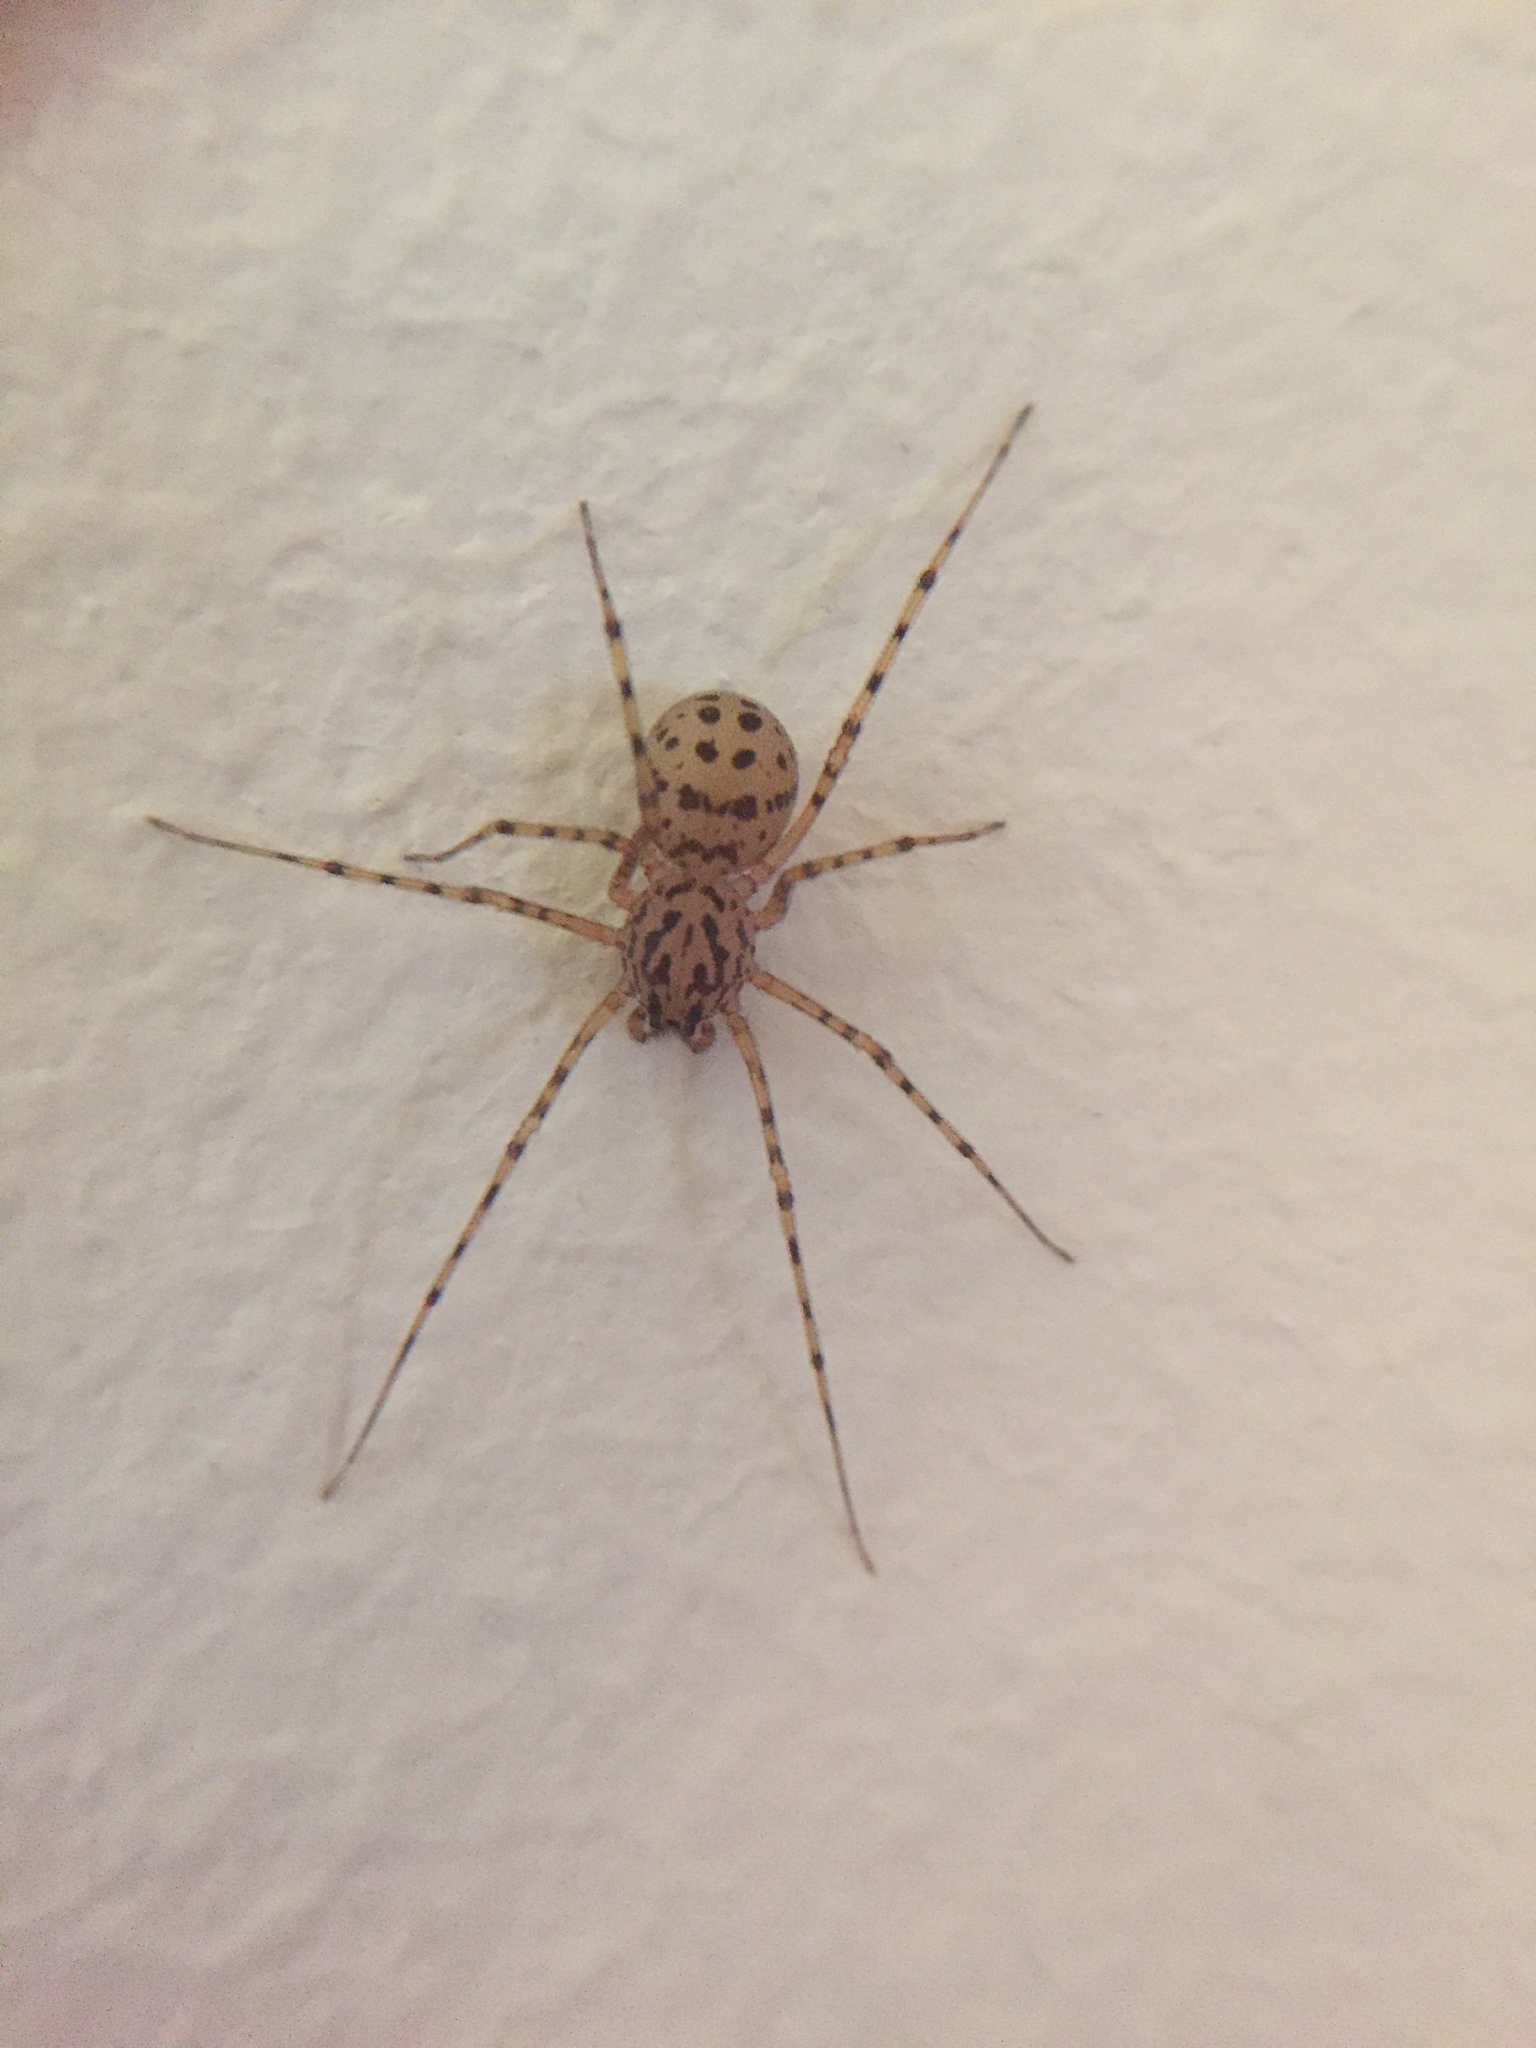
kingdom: Animalia
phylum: Arthropoda
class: Arachnida
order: Araneae
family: Scytodidae
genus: Scytodes
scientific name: Scytodes thoracica
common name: Spitting spider
